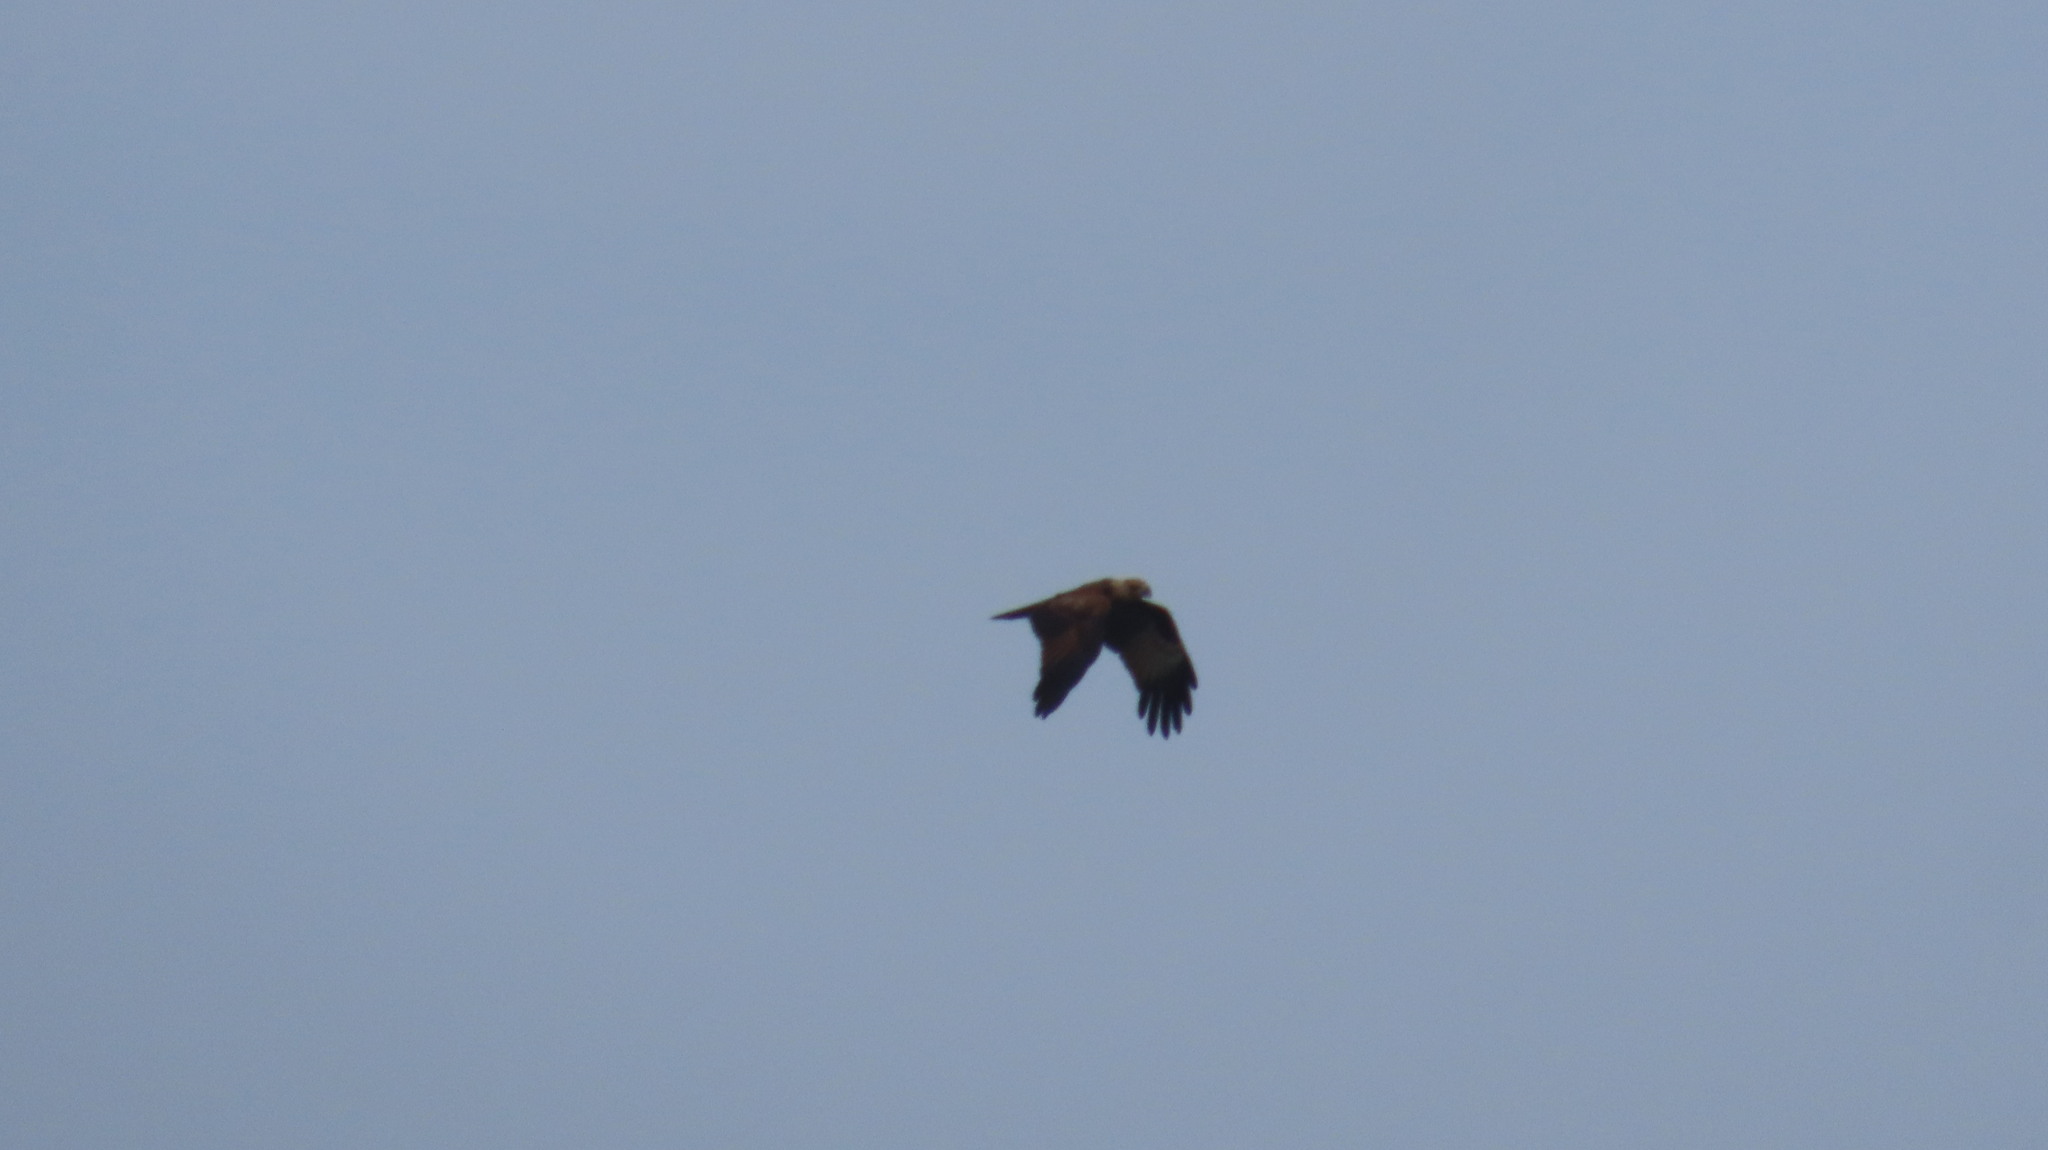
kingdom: Animalia
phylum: Chordata
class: Aves
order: Accipitriformes
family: Accipitridae
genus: Haliastur
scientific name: Haliastur indus
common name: Brahminy kite
